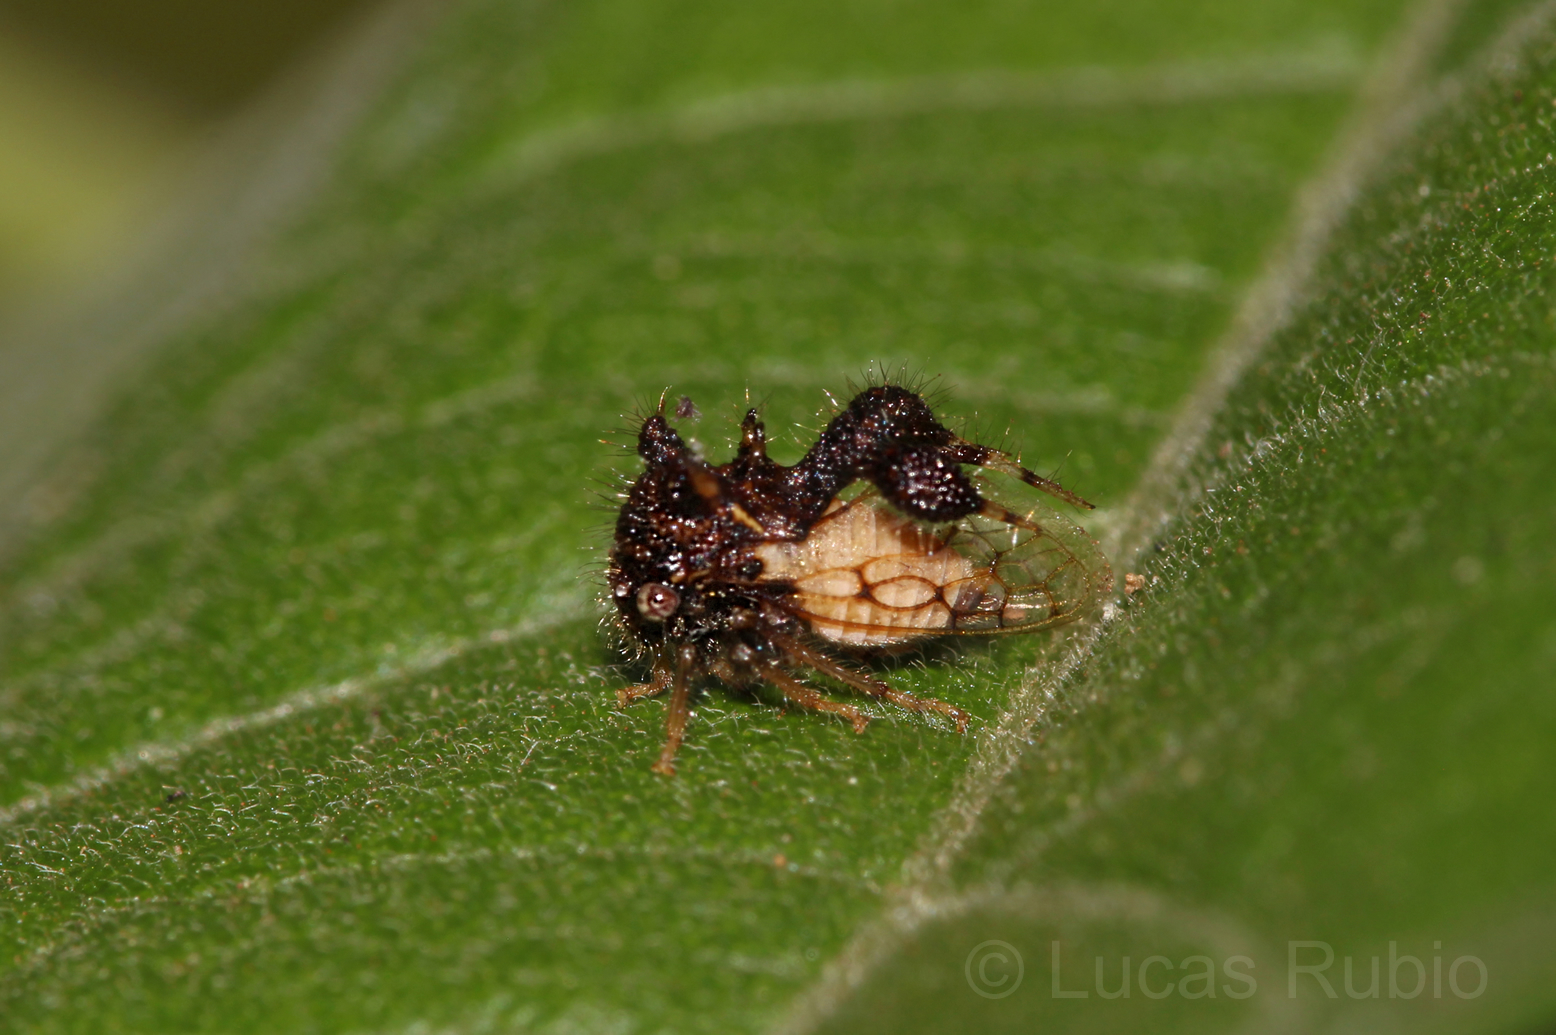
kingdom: Animalia
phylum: Arthropoda
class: Insecta
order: Hemiptera
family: Membracidae
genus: Cyphonia
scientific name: Cyphonia claviger
